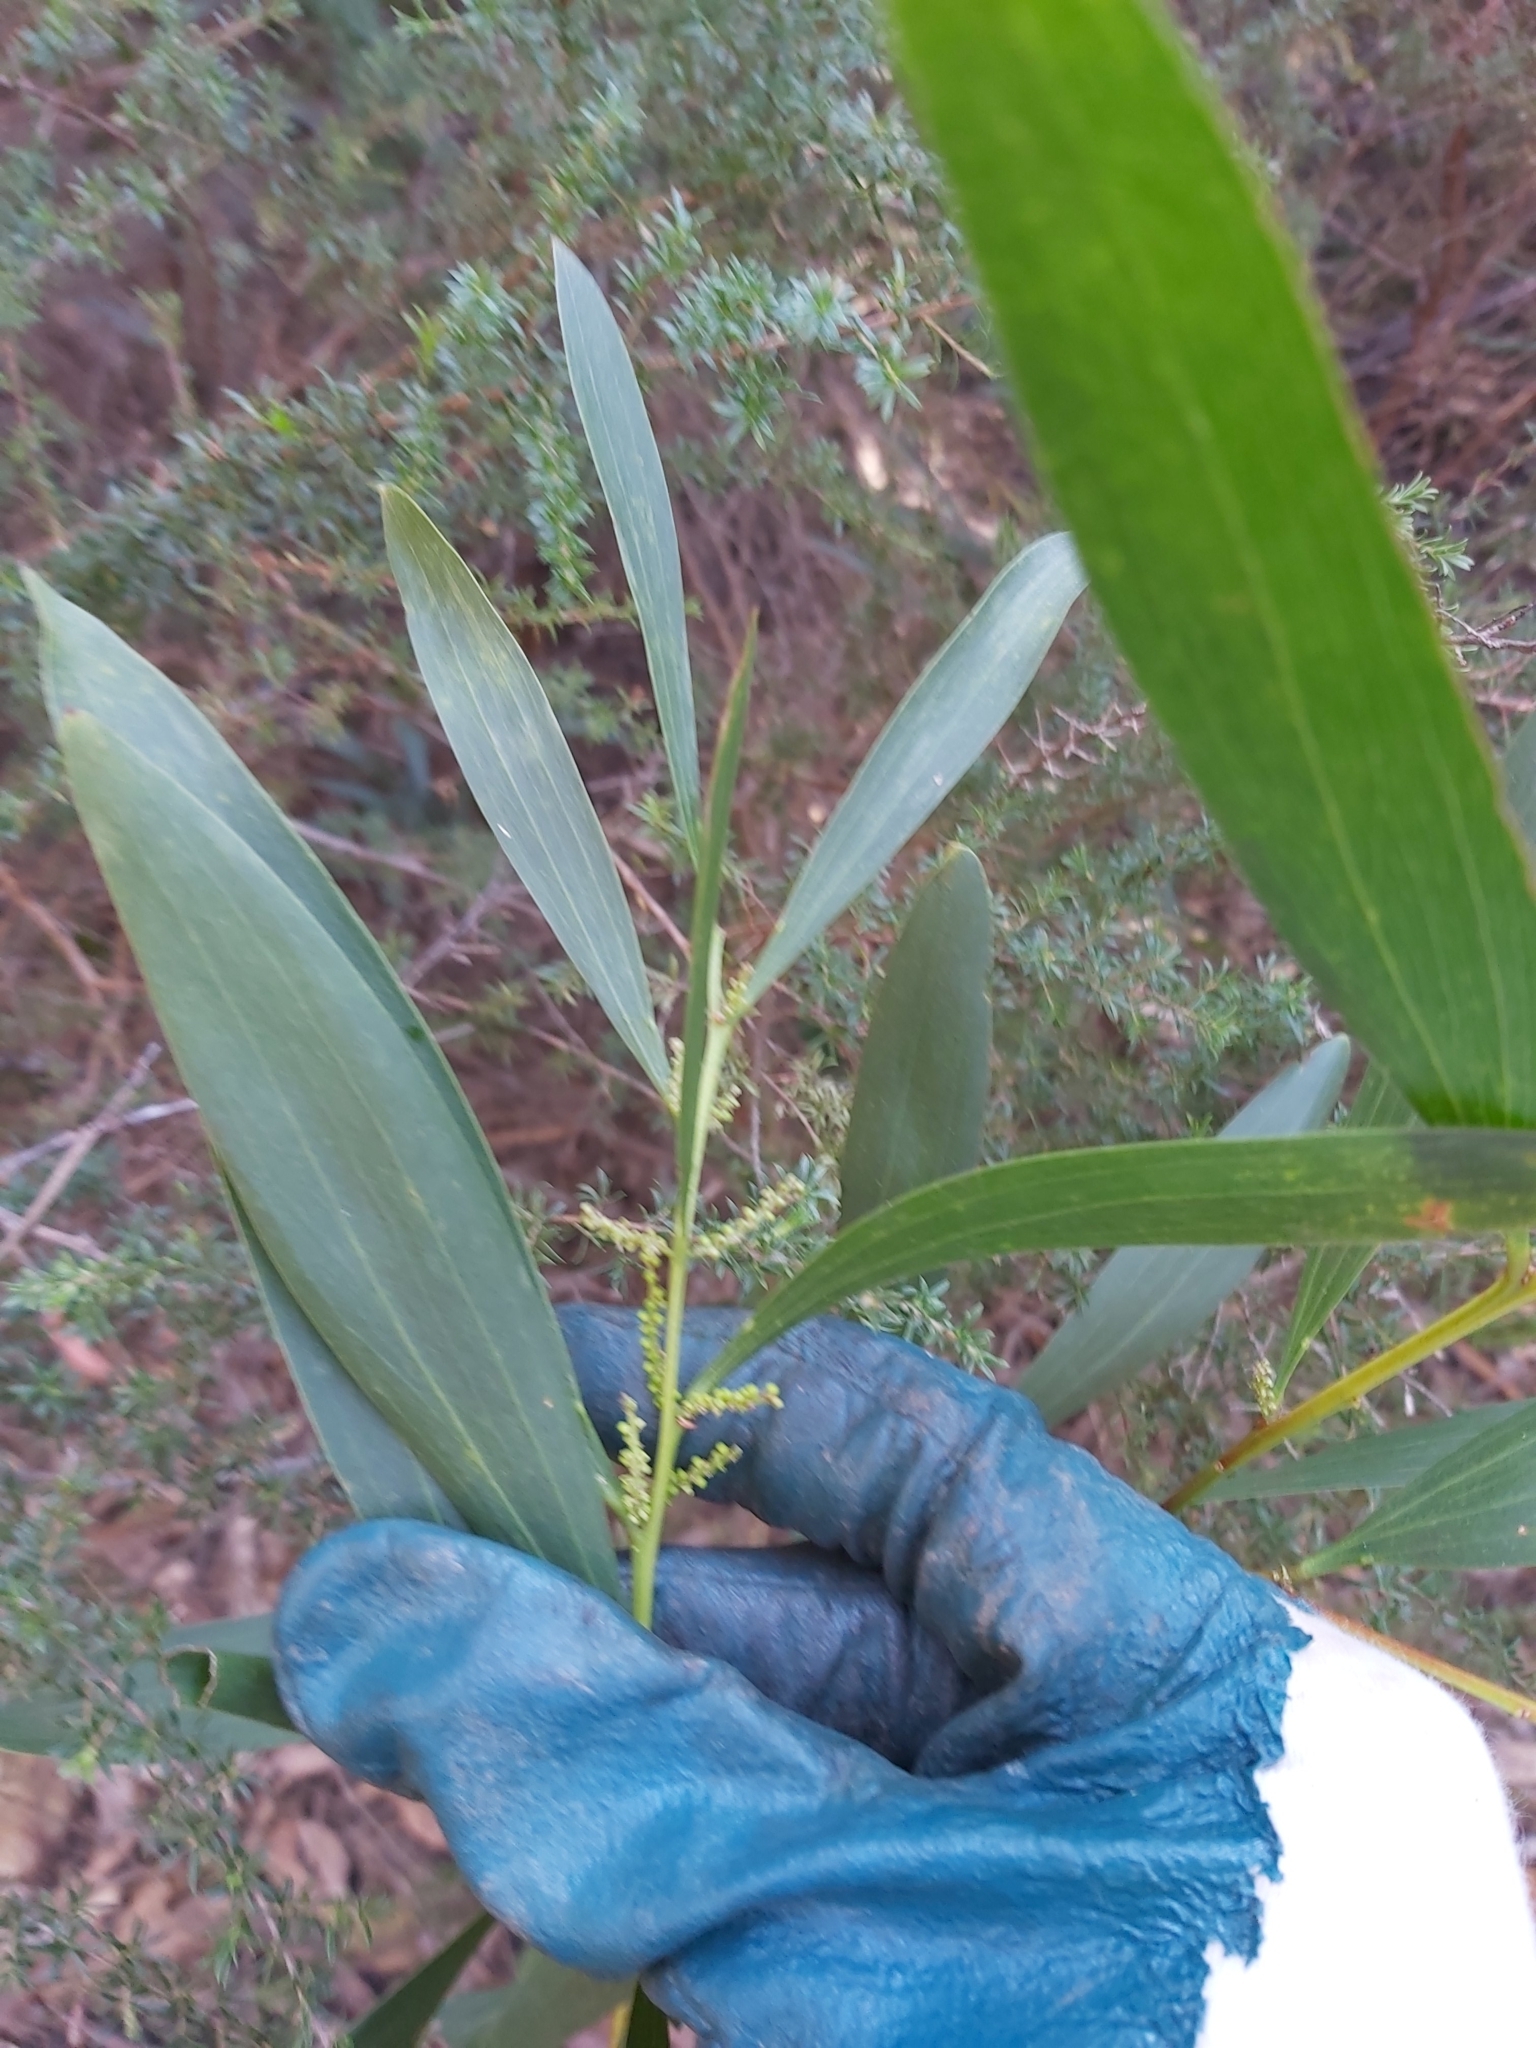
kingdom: Plantae
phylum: Tracheophyta
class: Magnoliopsida
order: Fabales
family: Fabaceae
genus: Acacia
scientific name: Acacia longifolia
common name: Sydney golden wattle
